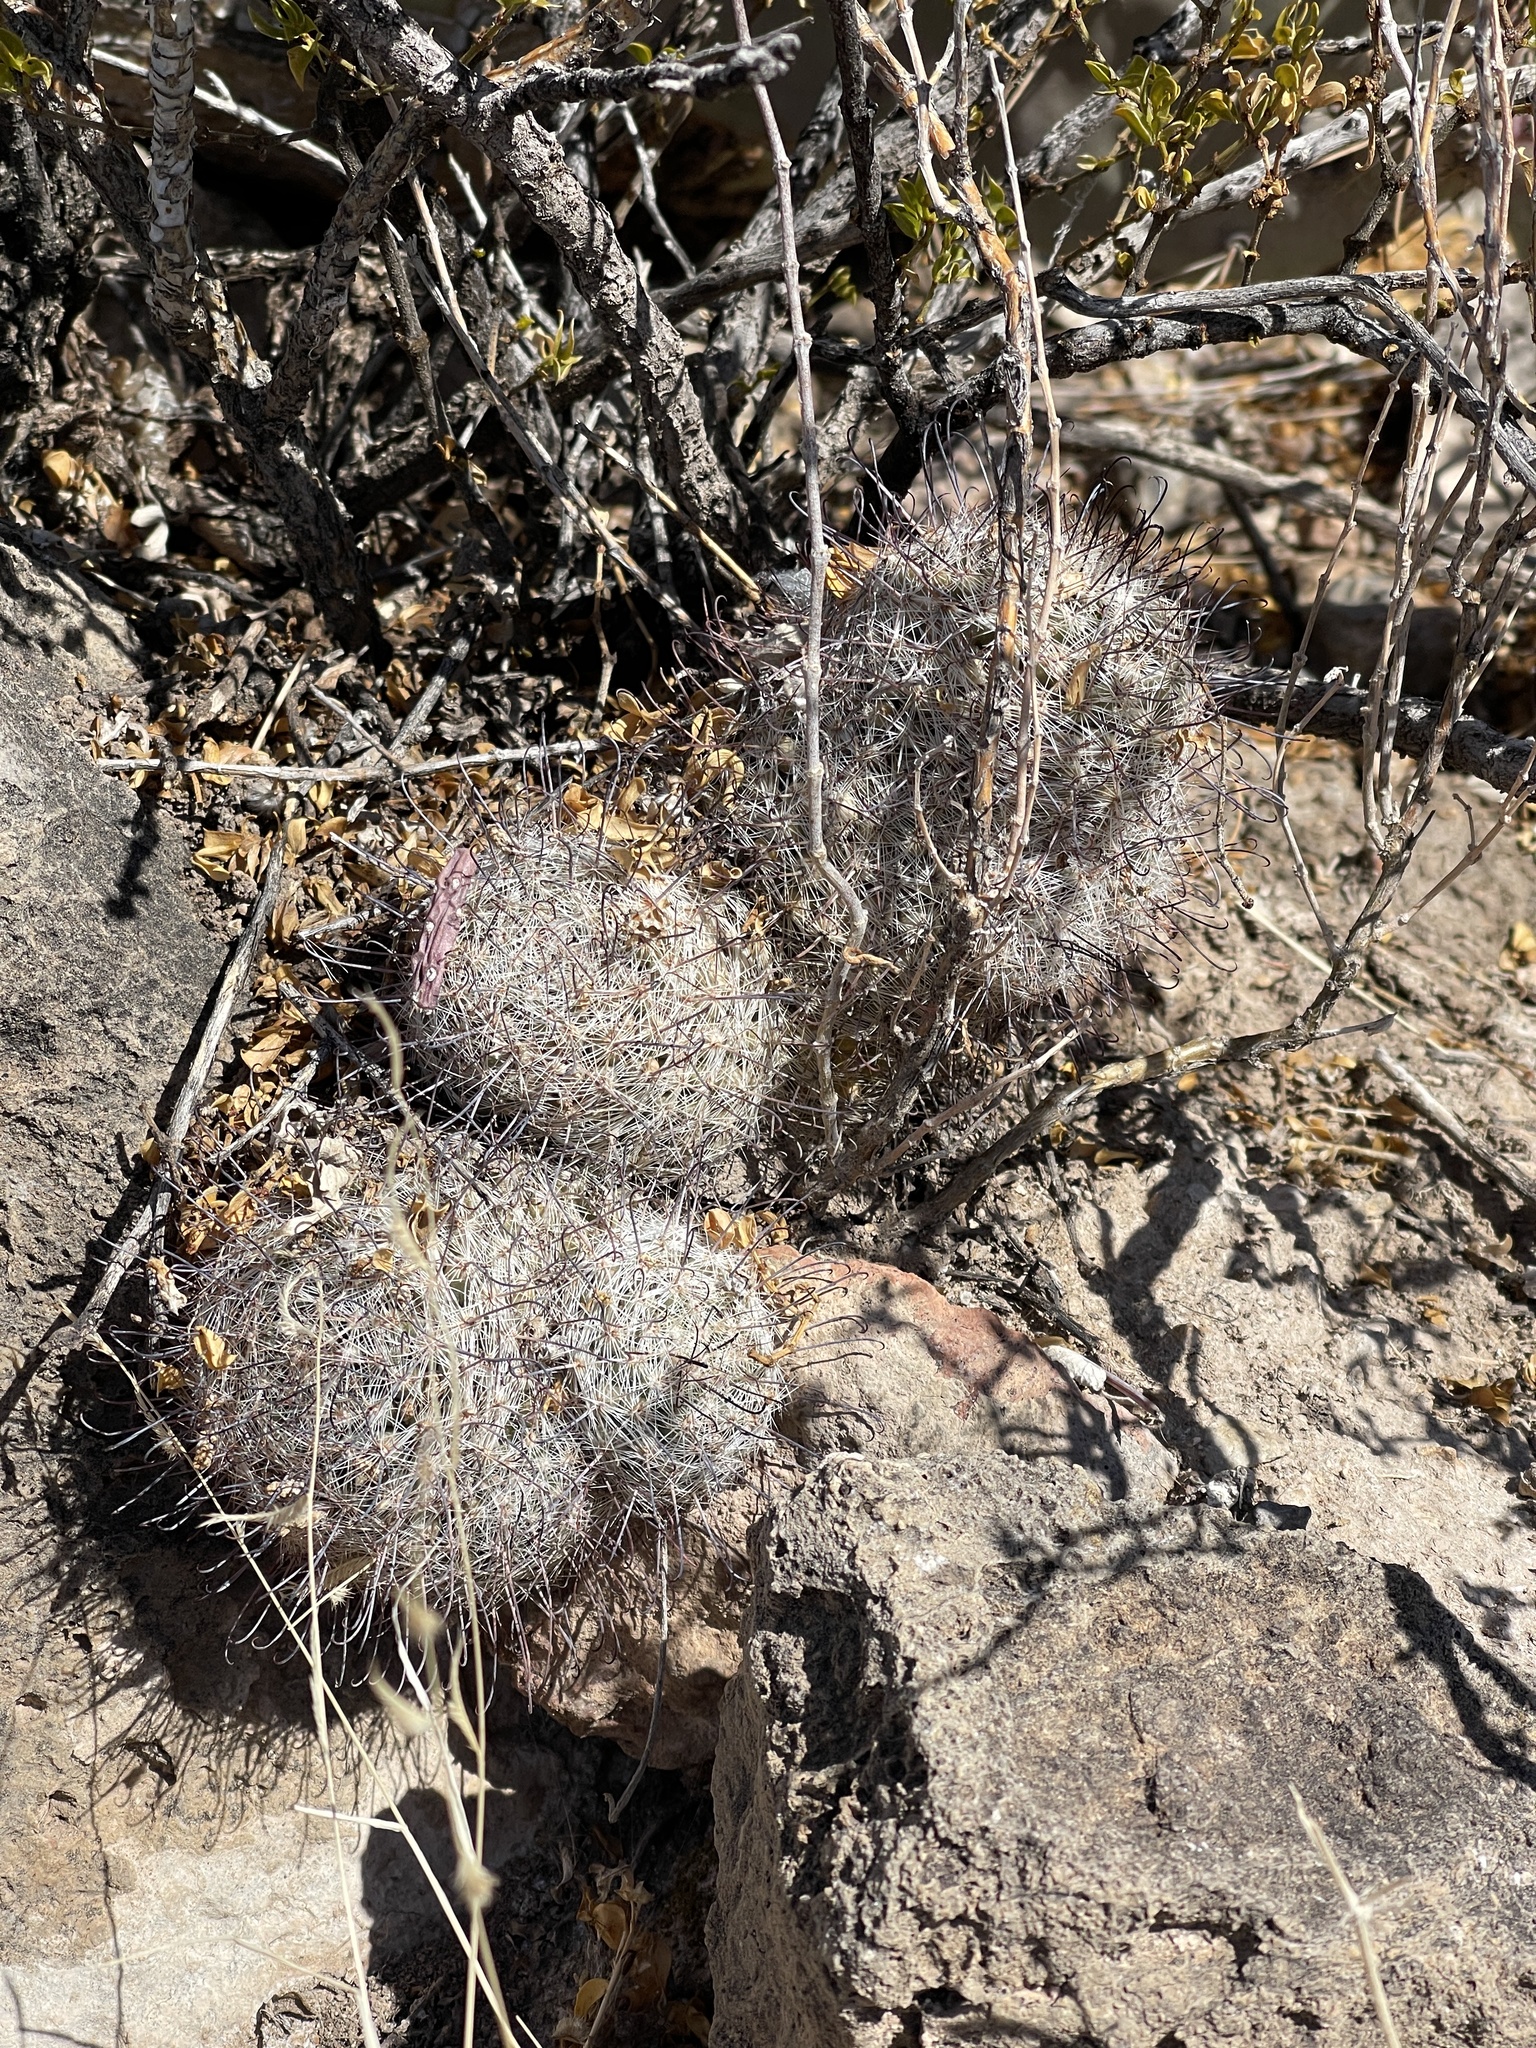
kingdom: Plantae
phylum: Tracheophyta
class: Magnoliopsida
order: Caryophyllales
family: Cactaceae
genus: Cochemiea
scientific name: Cochemiea grahamii
